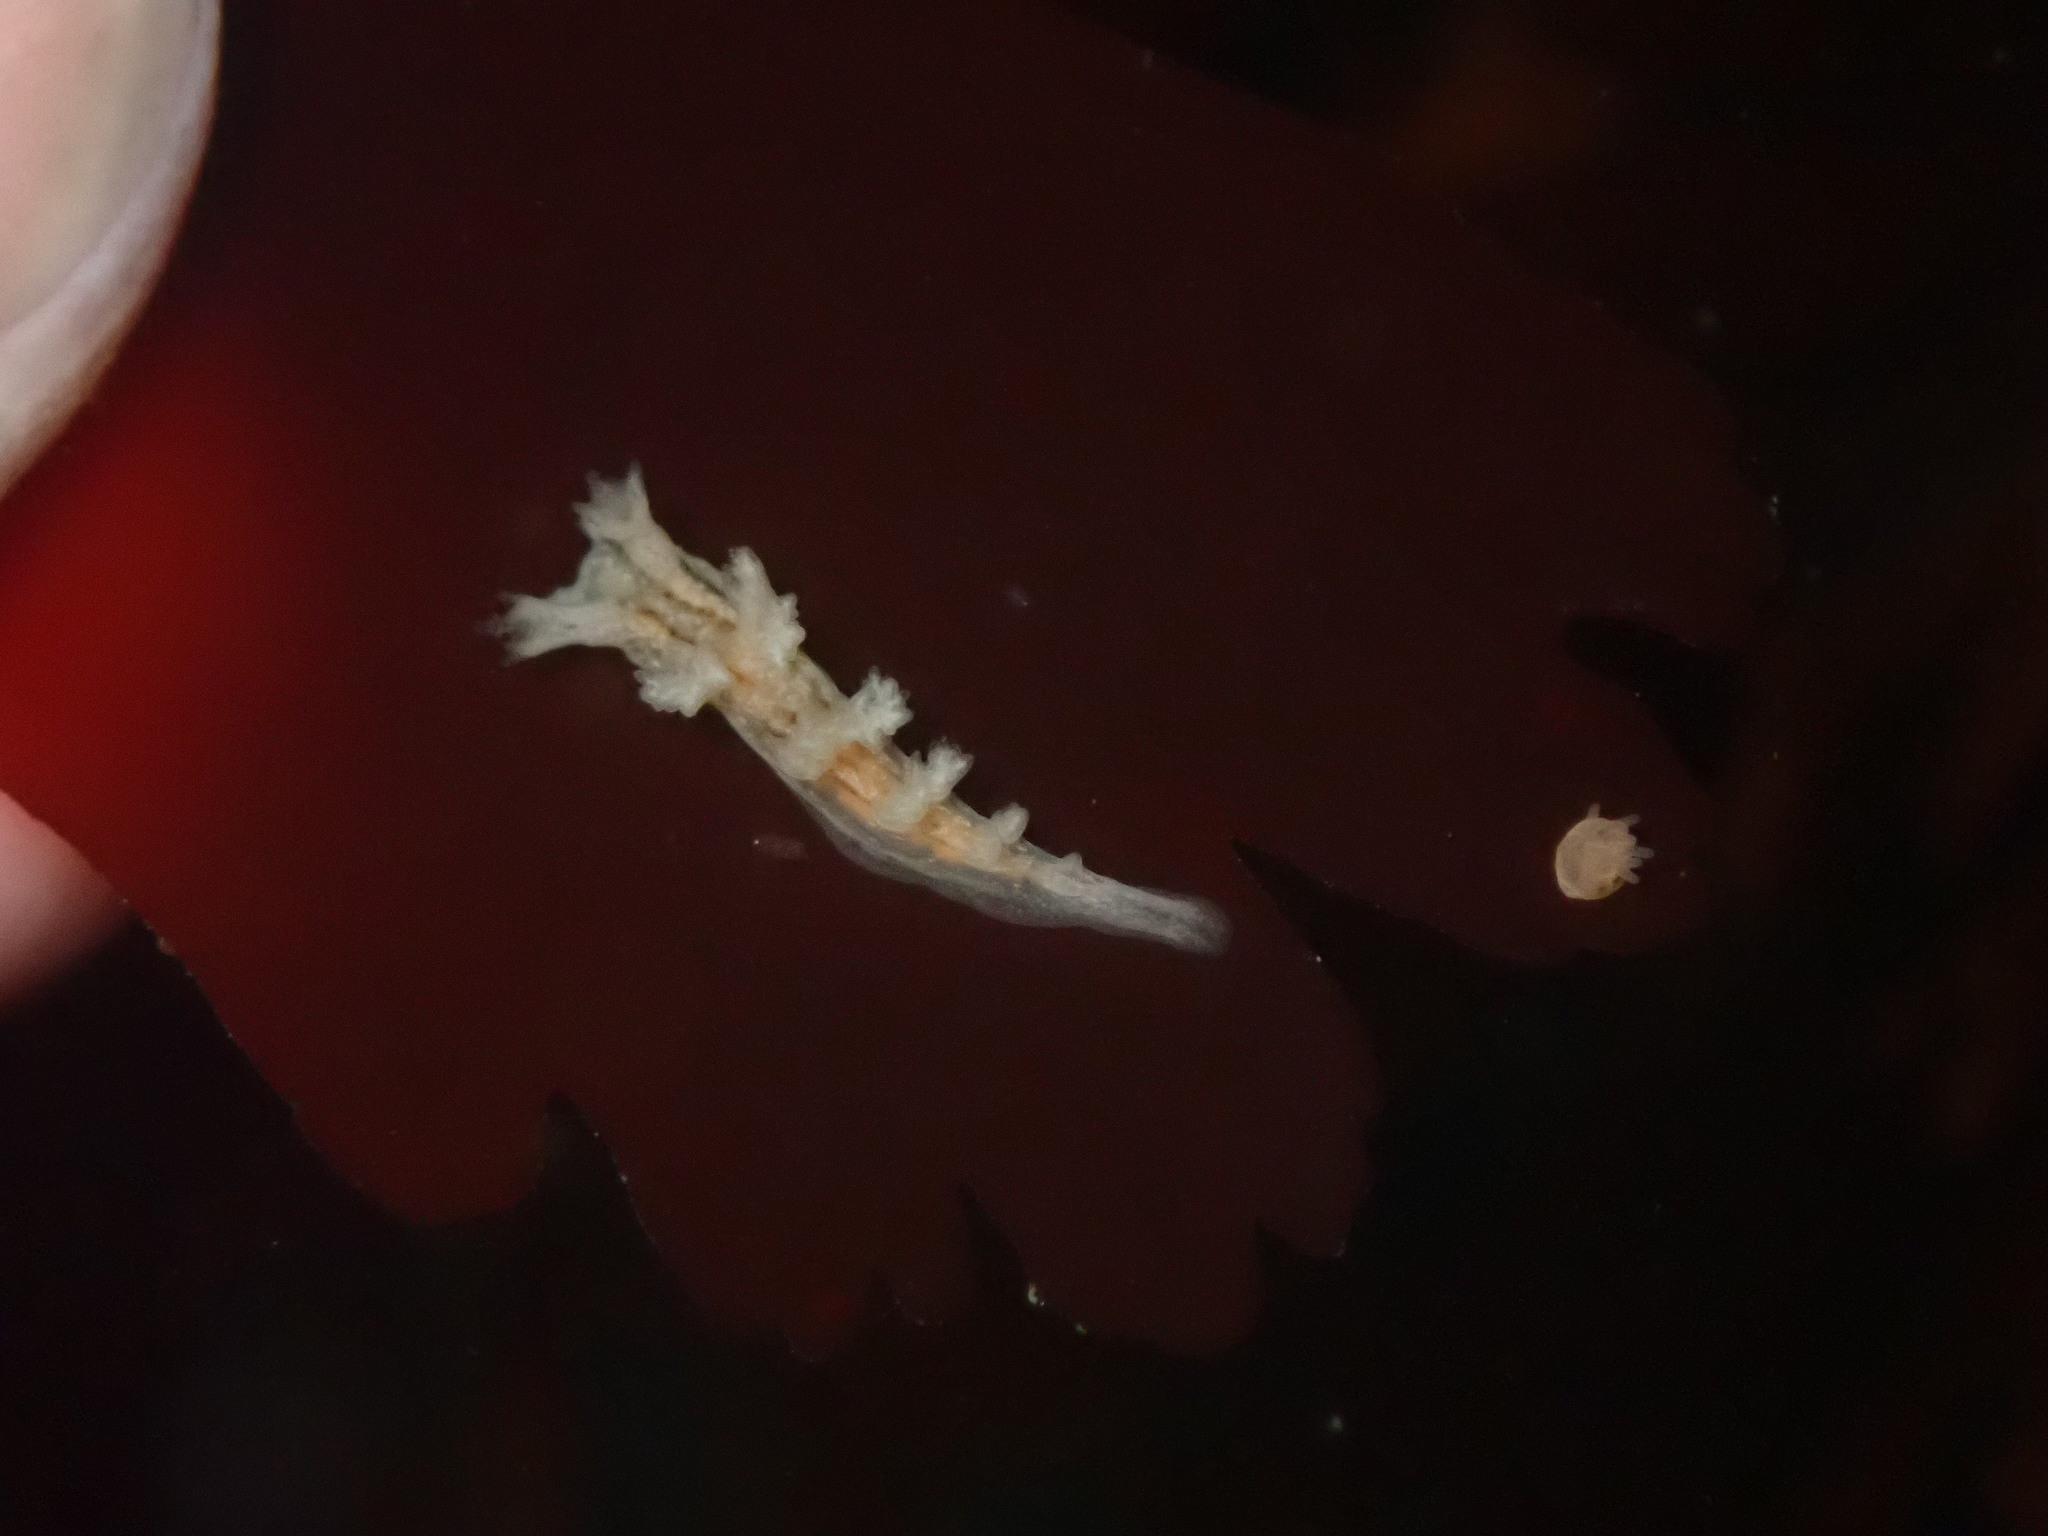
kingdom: Animalia
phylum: Mollusca
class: Gastropoda
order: Nudibranchia
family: Dendronotidae
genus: Dendronotus
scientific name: Dendronotus subramosus
